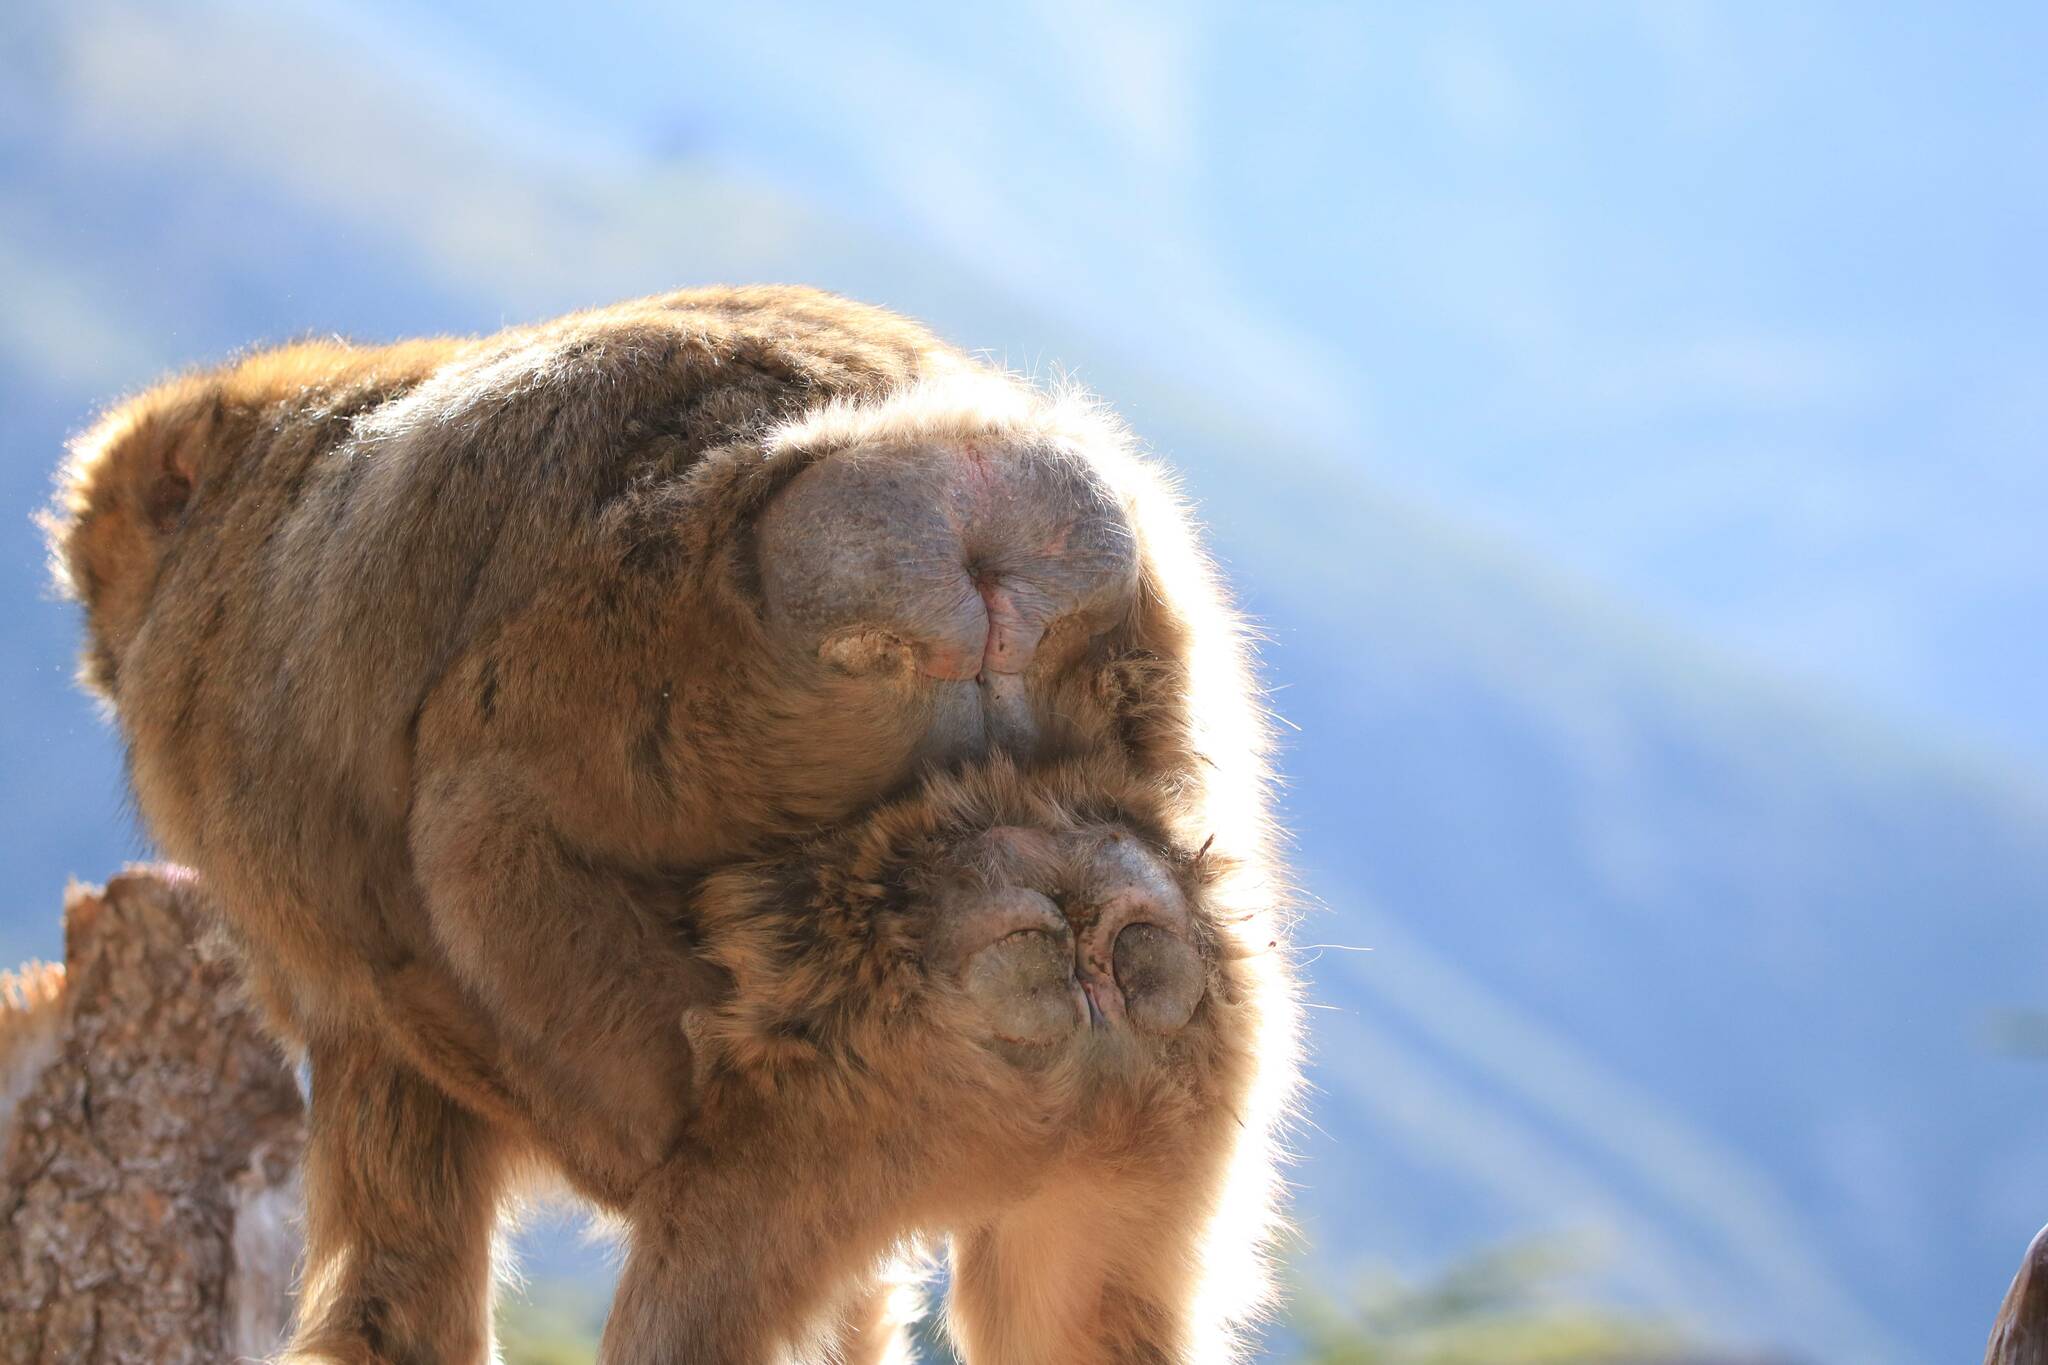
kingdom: Animalia
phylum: Chordata
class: Mammalia
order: Primates
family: Cercopithecidae
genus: Macaca
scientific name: Macaca sylvanus
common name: Barbary macaque
